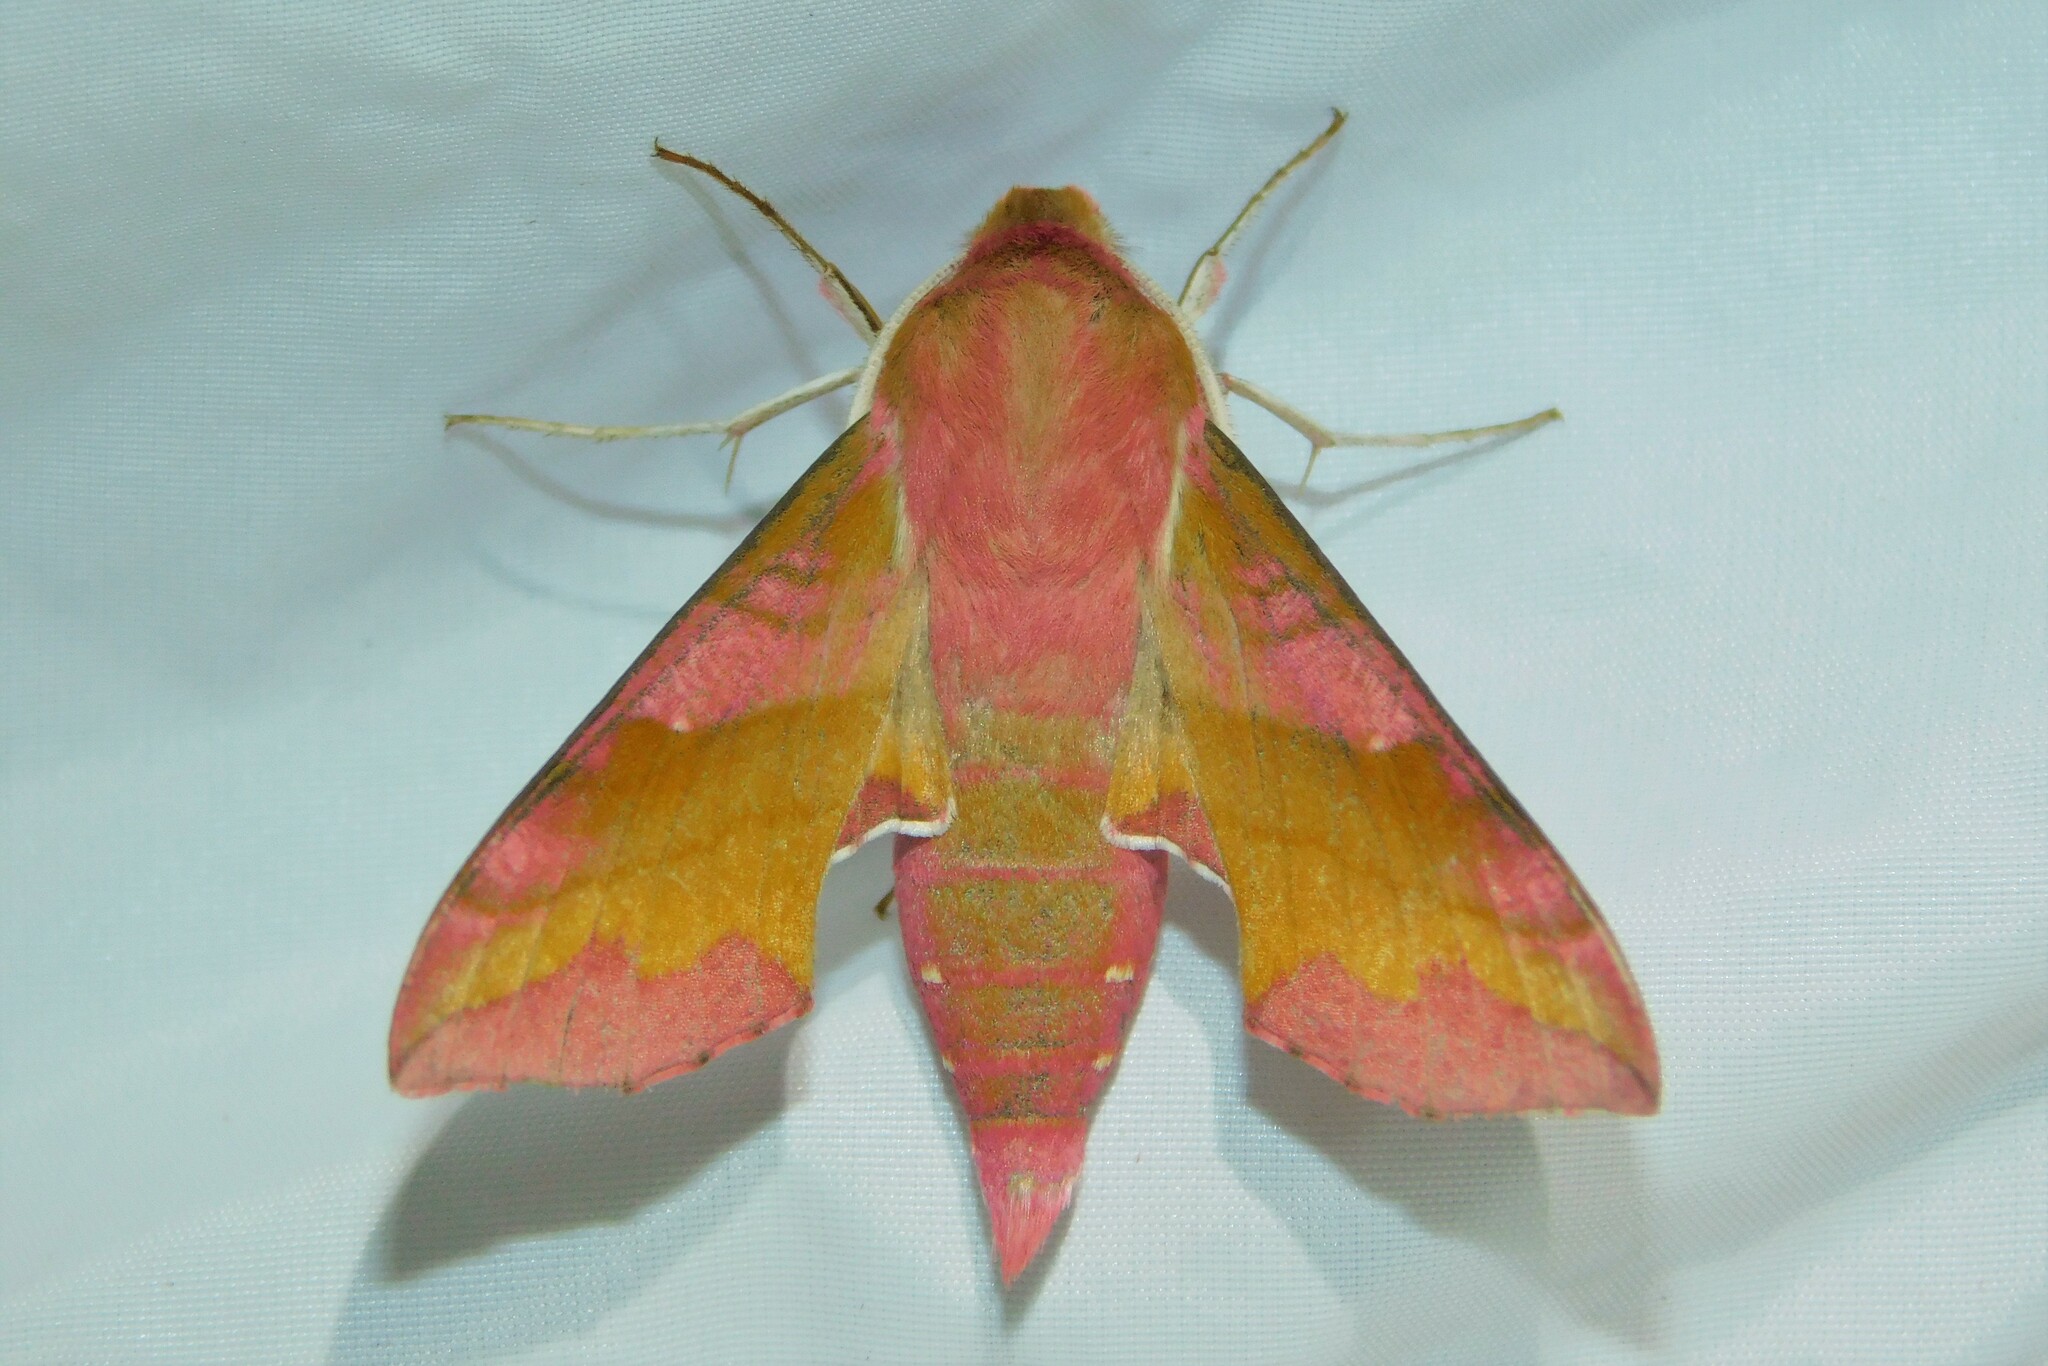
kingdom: Animalia
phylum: Arthropoda
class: Insecta
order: Lepidoptera
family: Sphingidae
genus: Deilephila
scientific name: Deilephila porcellus
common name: Small elephant hawk-moth
